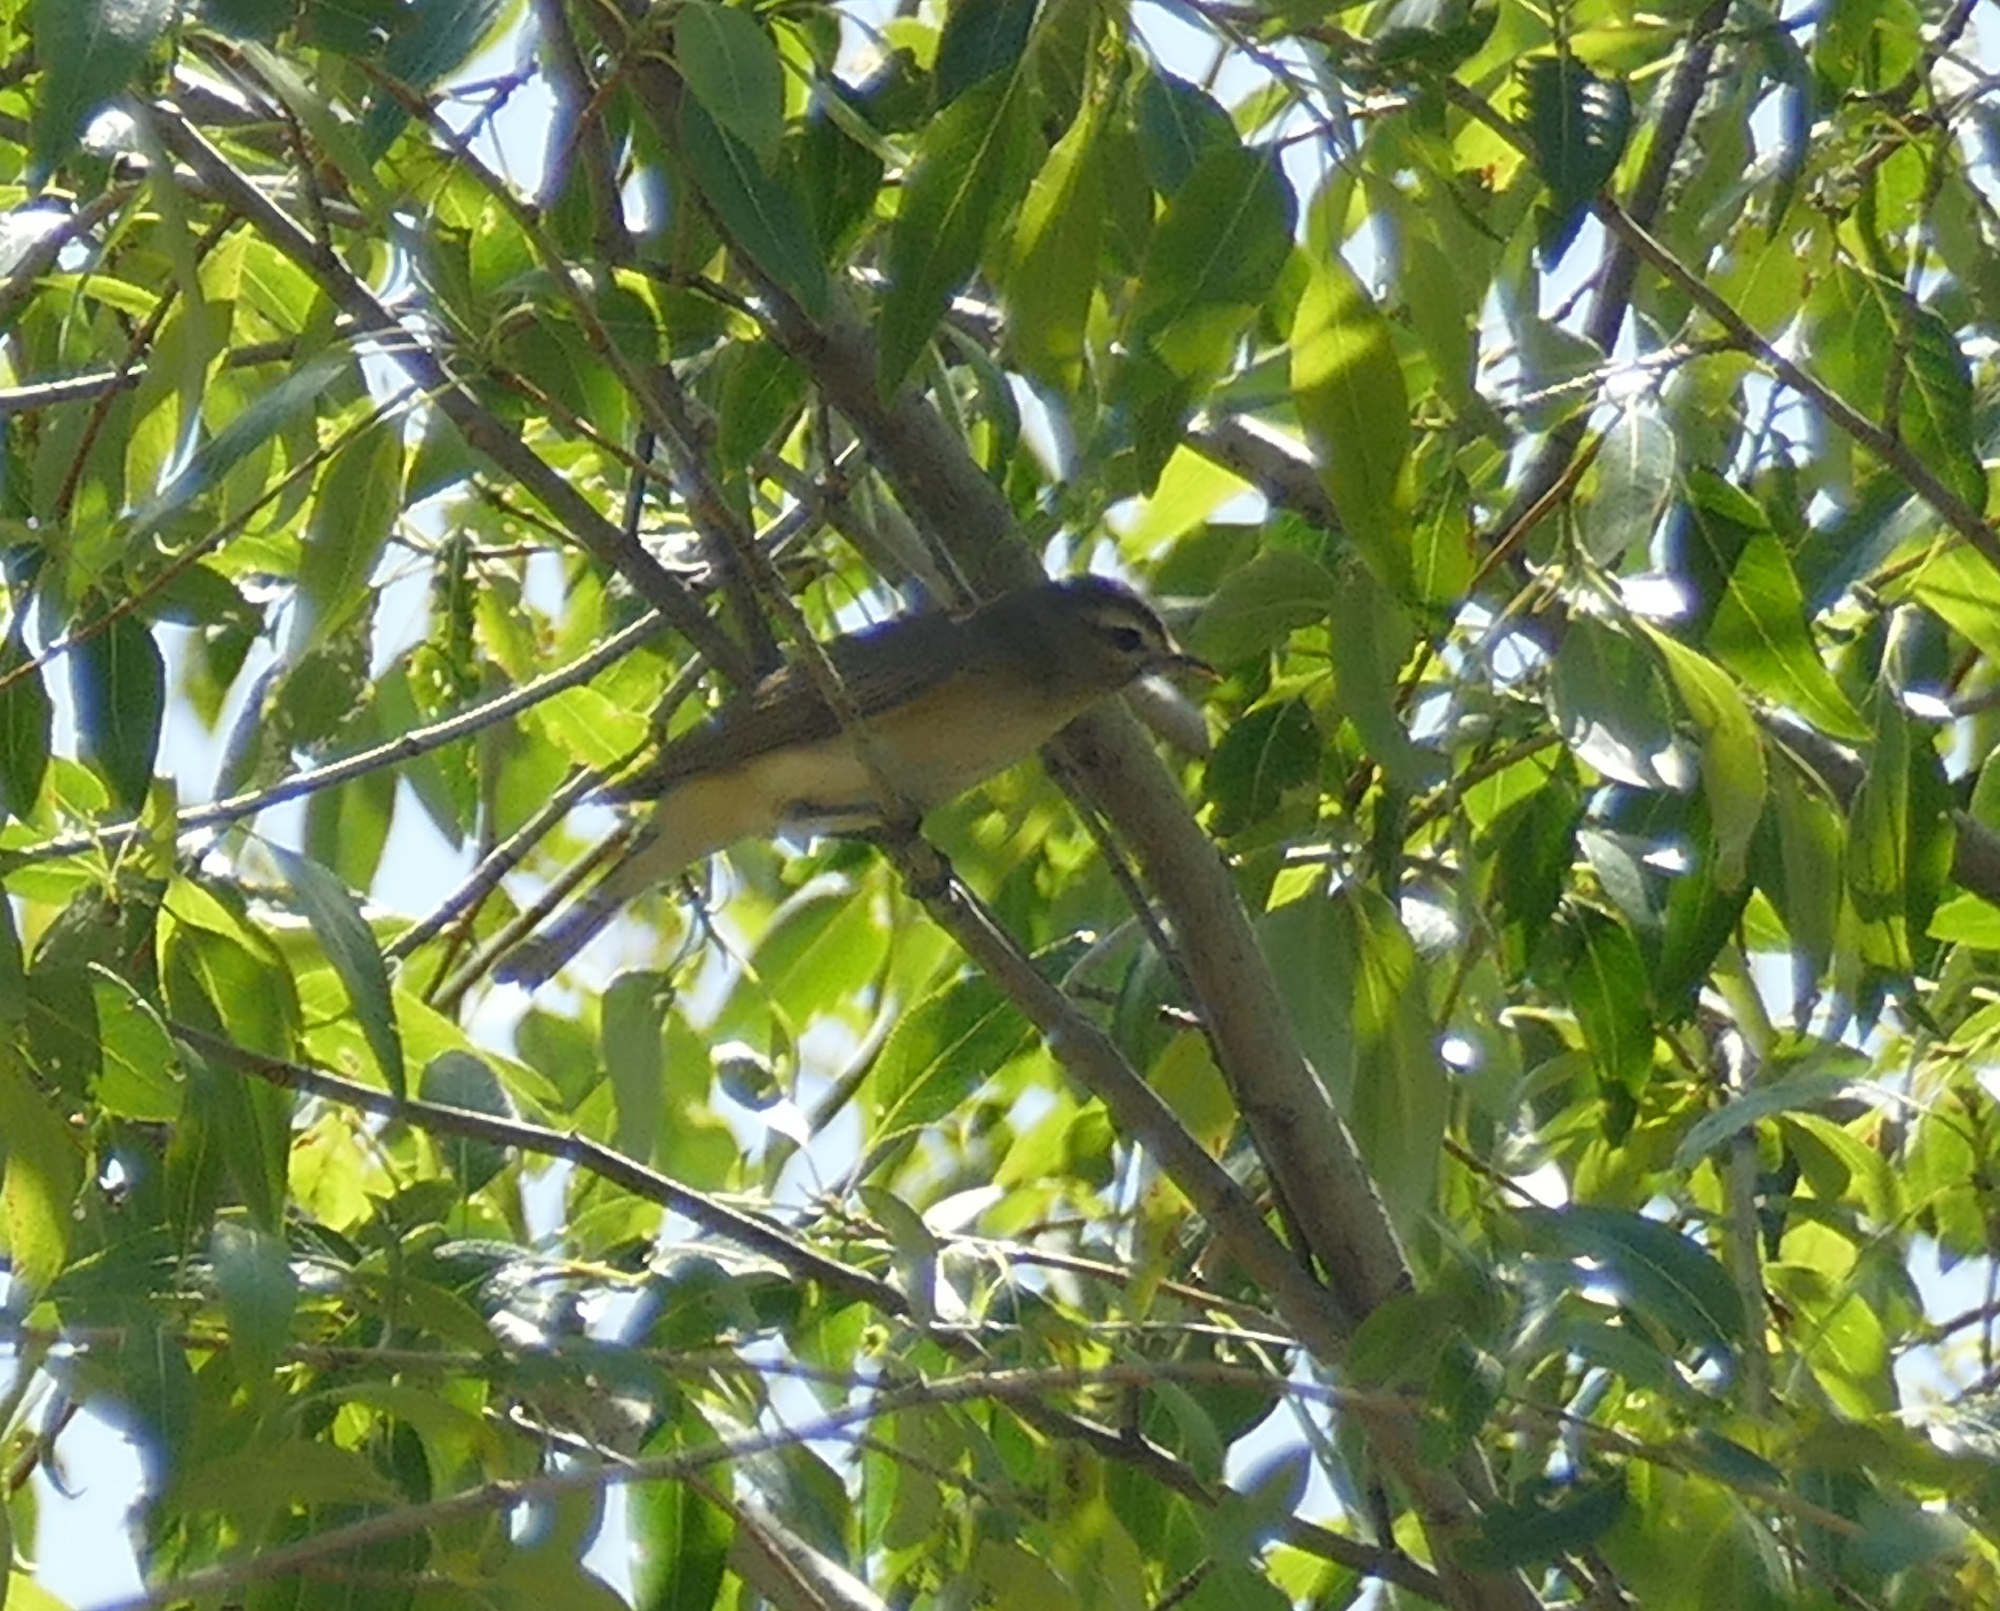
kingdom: Animalia
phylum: Chordata
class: Aves
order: Passeriformes
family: Vireonidae
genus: Vireo
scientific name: Vireo gilvus
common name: Warbling vireo
